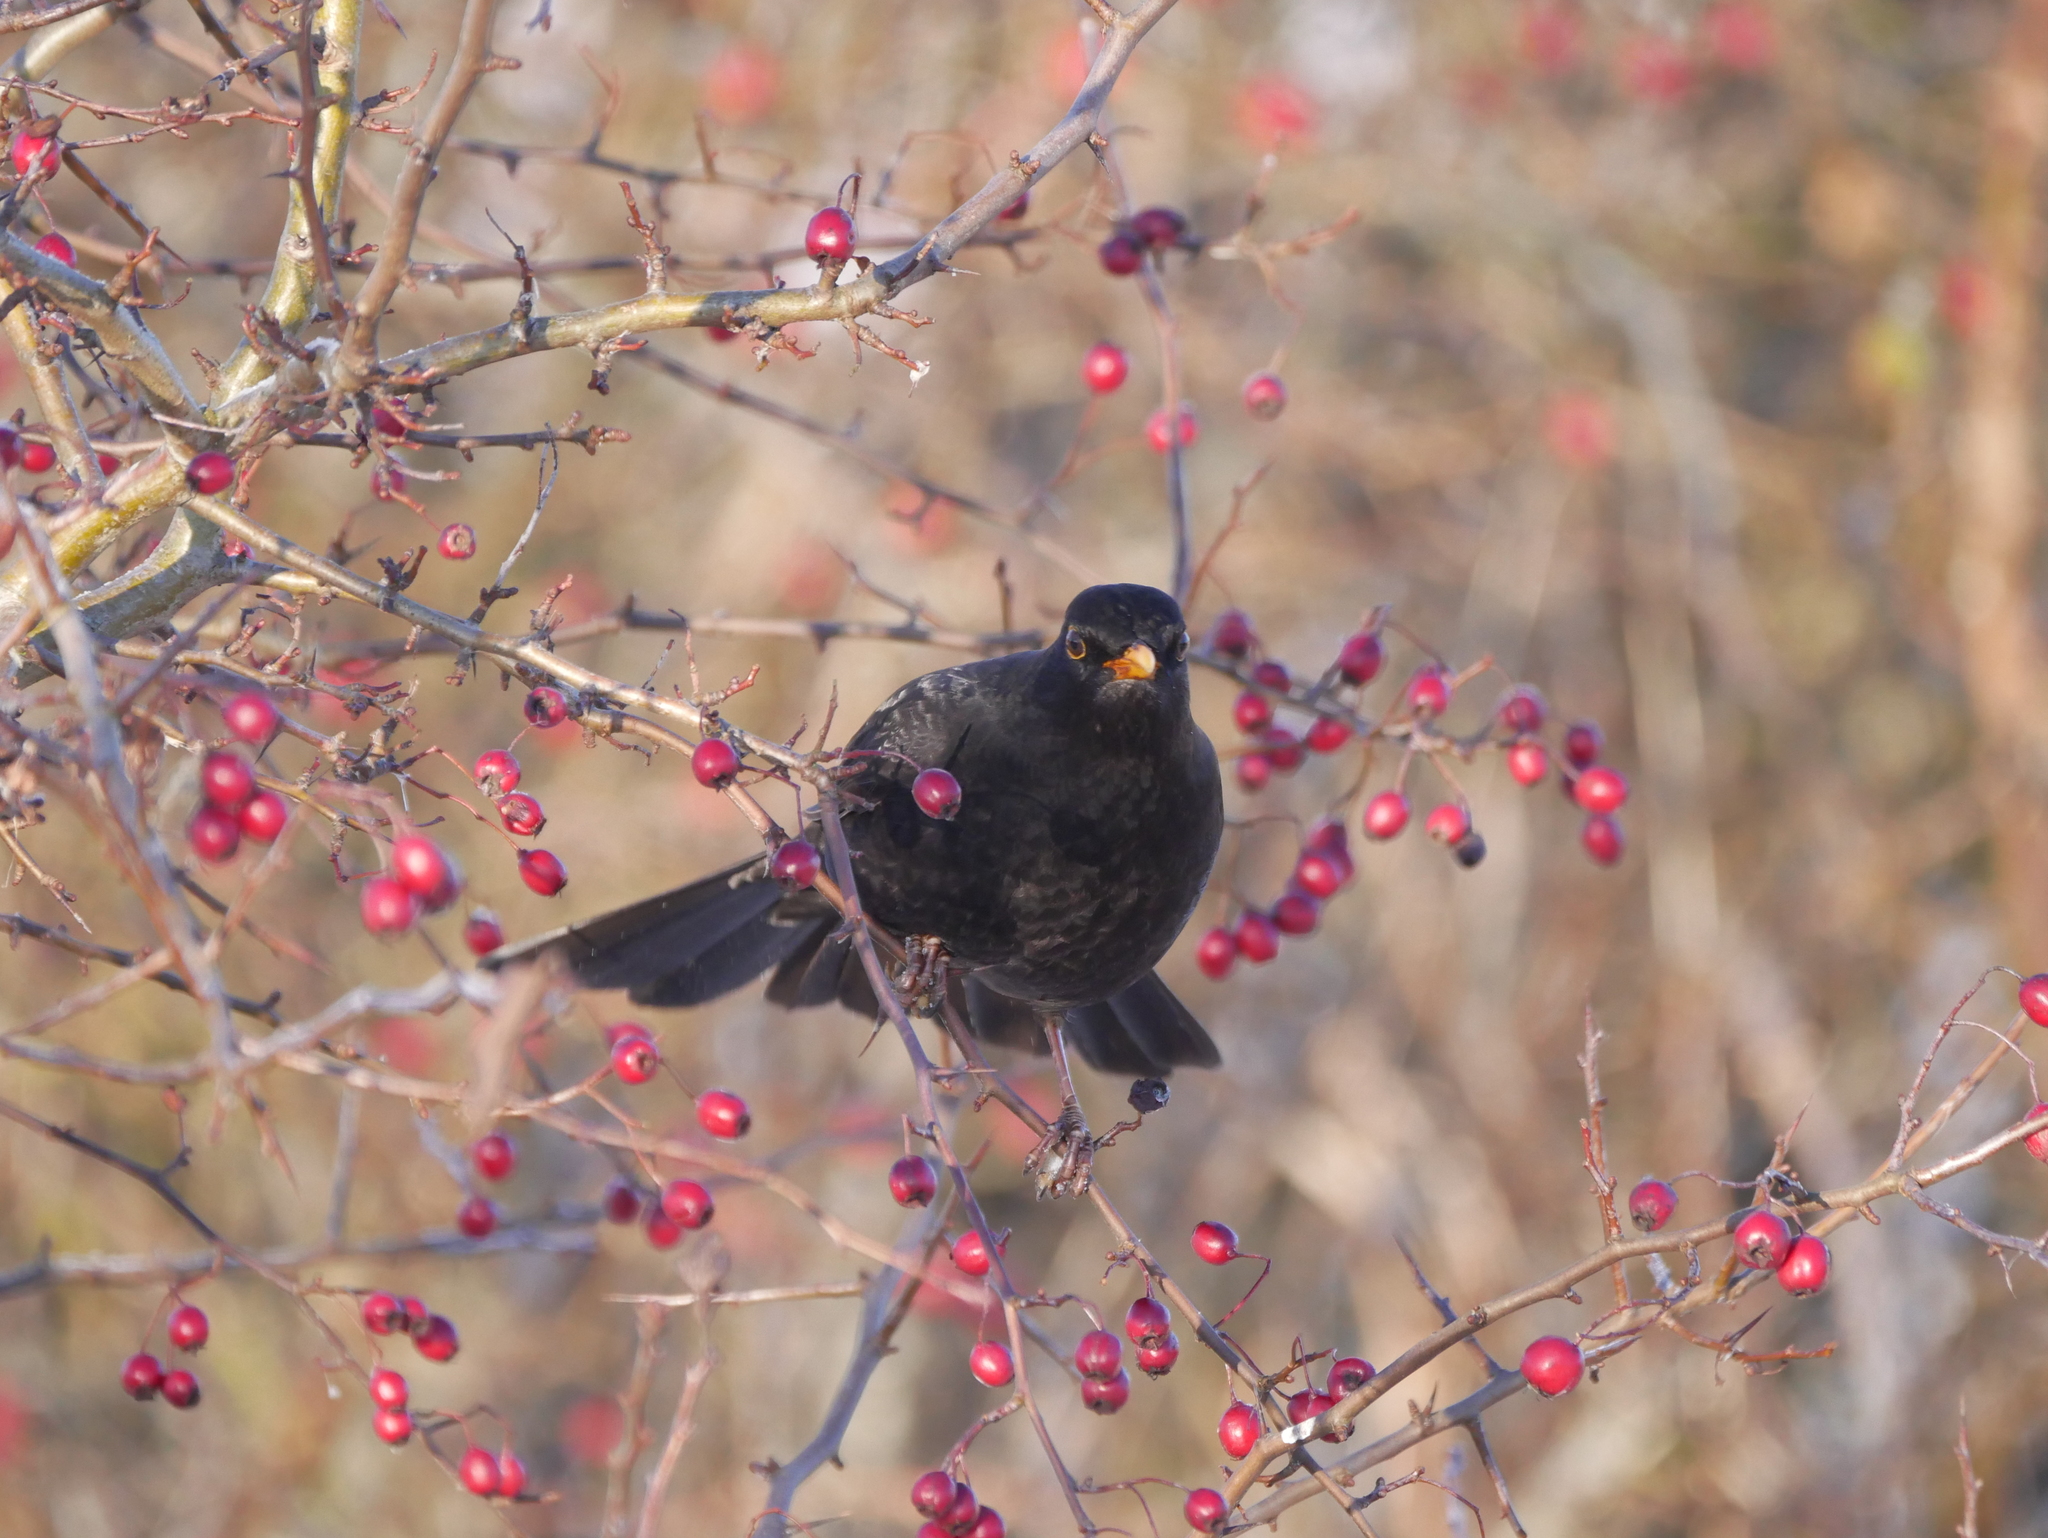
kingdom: Animalia
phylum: Chordata
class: Aves
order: Passeriformes
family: Turdidae
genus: Turdus
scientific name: Turdus merula
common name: Common blackbird
